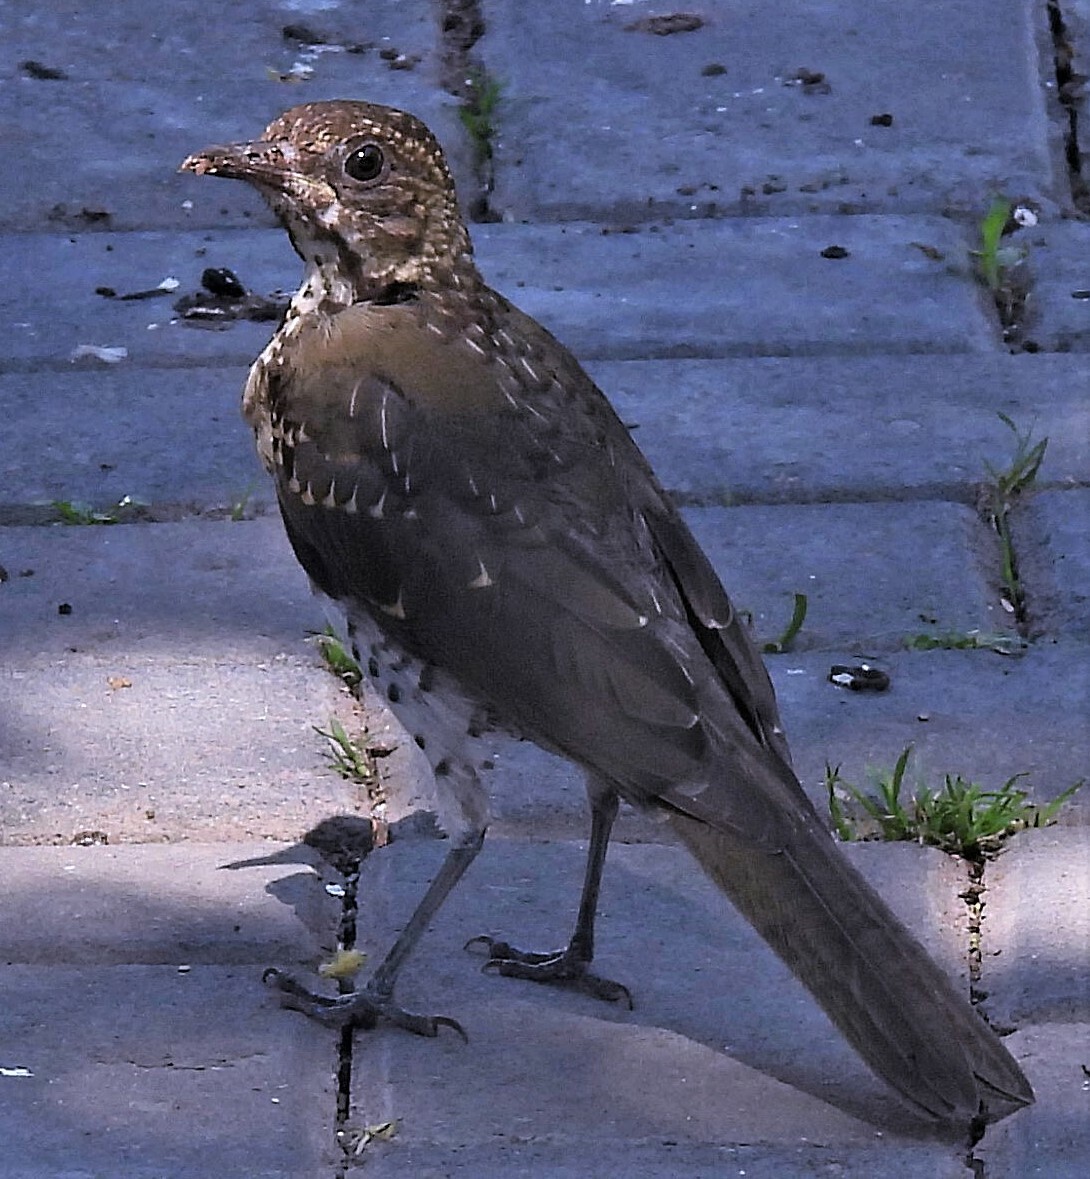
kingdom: Animalia
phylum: Chordata
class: Aves
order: Passeriformes
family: Turdidae
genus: Turdus
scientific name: Turdus amaurochalinus
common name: Creamy-bellied thrush
